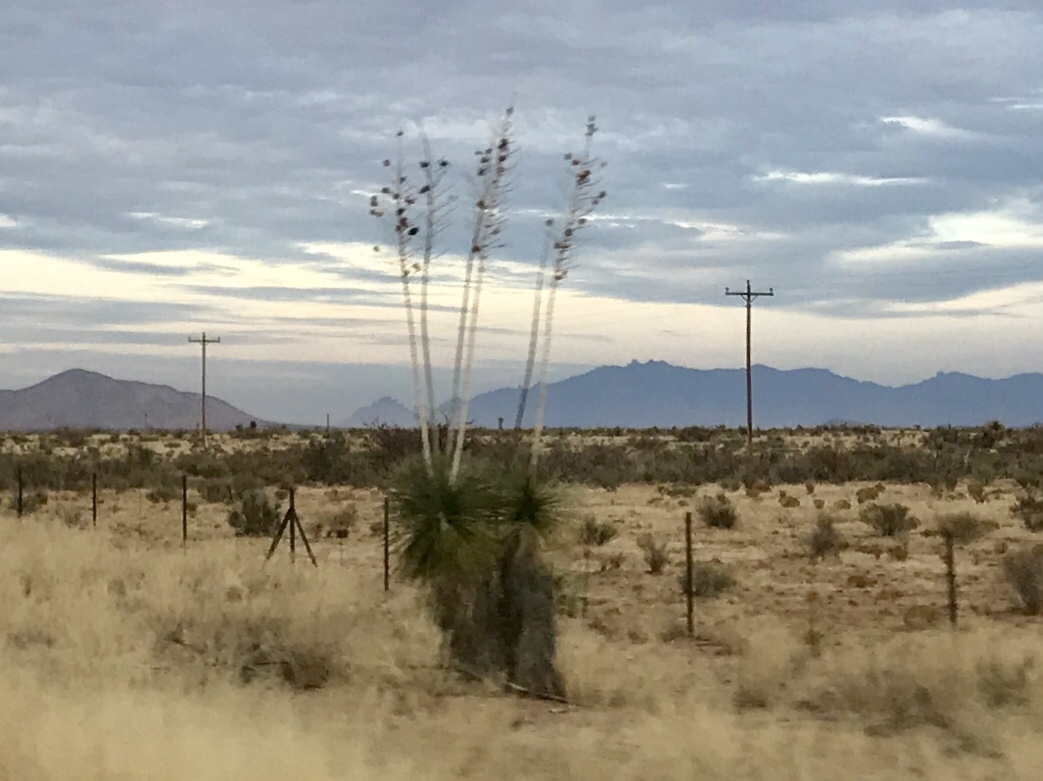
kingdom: Plantae
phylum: Tracheophyta
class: Liliopsida
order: Asparagales
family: Asparagaceae
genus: Yucca
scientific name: Yucca elata
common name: Palmella
